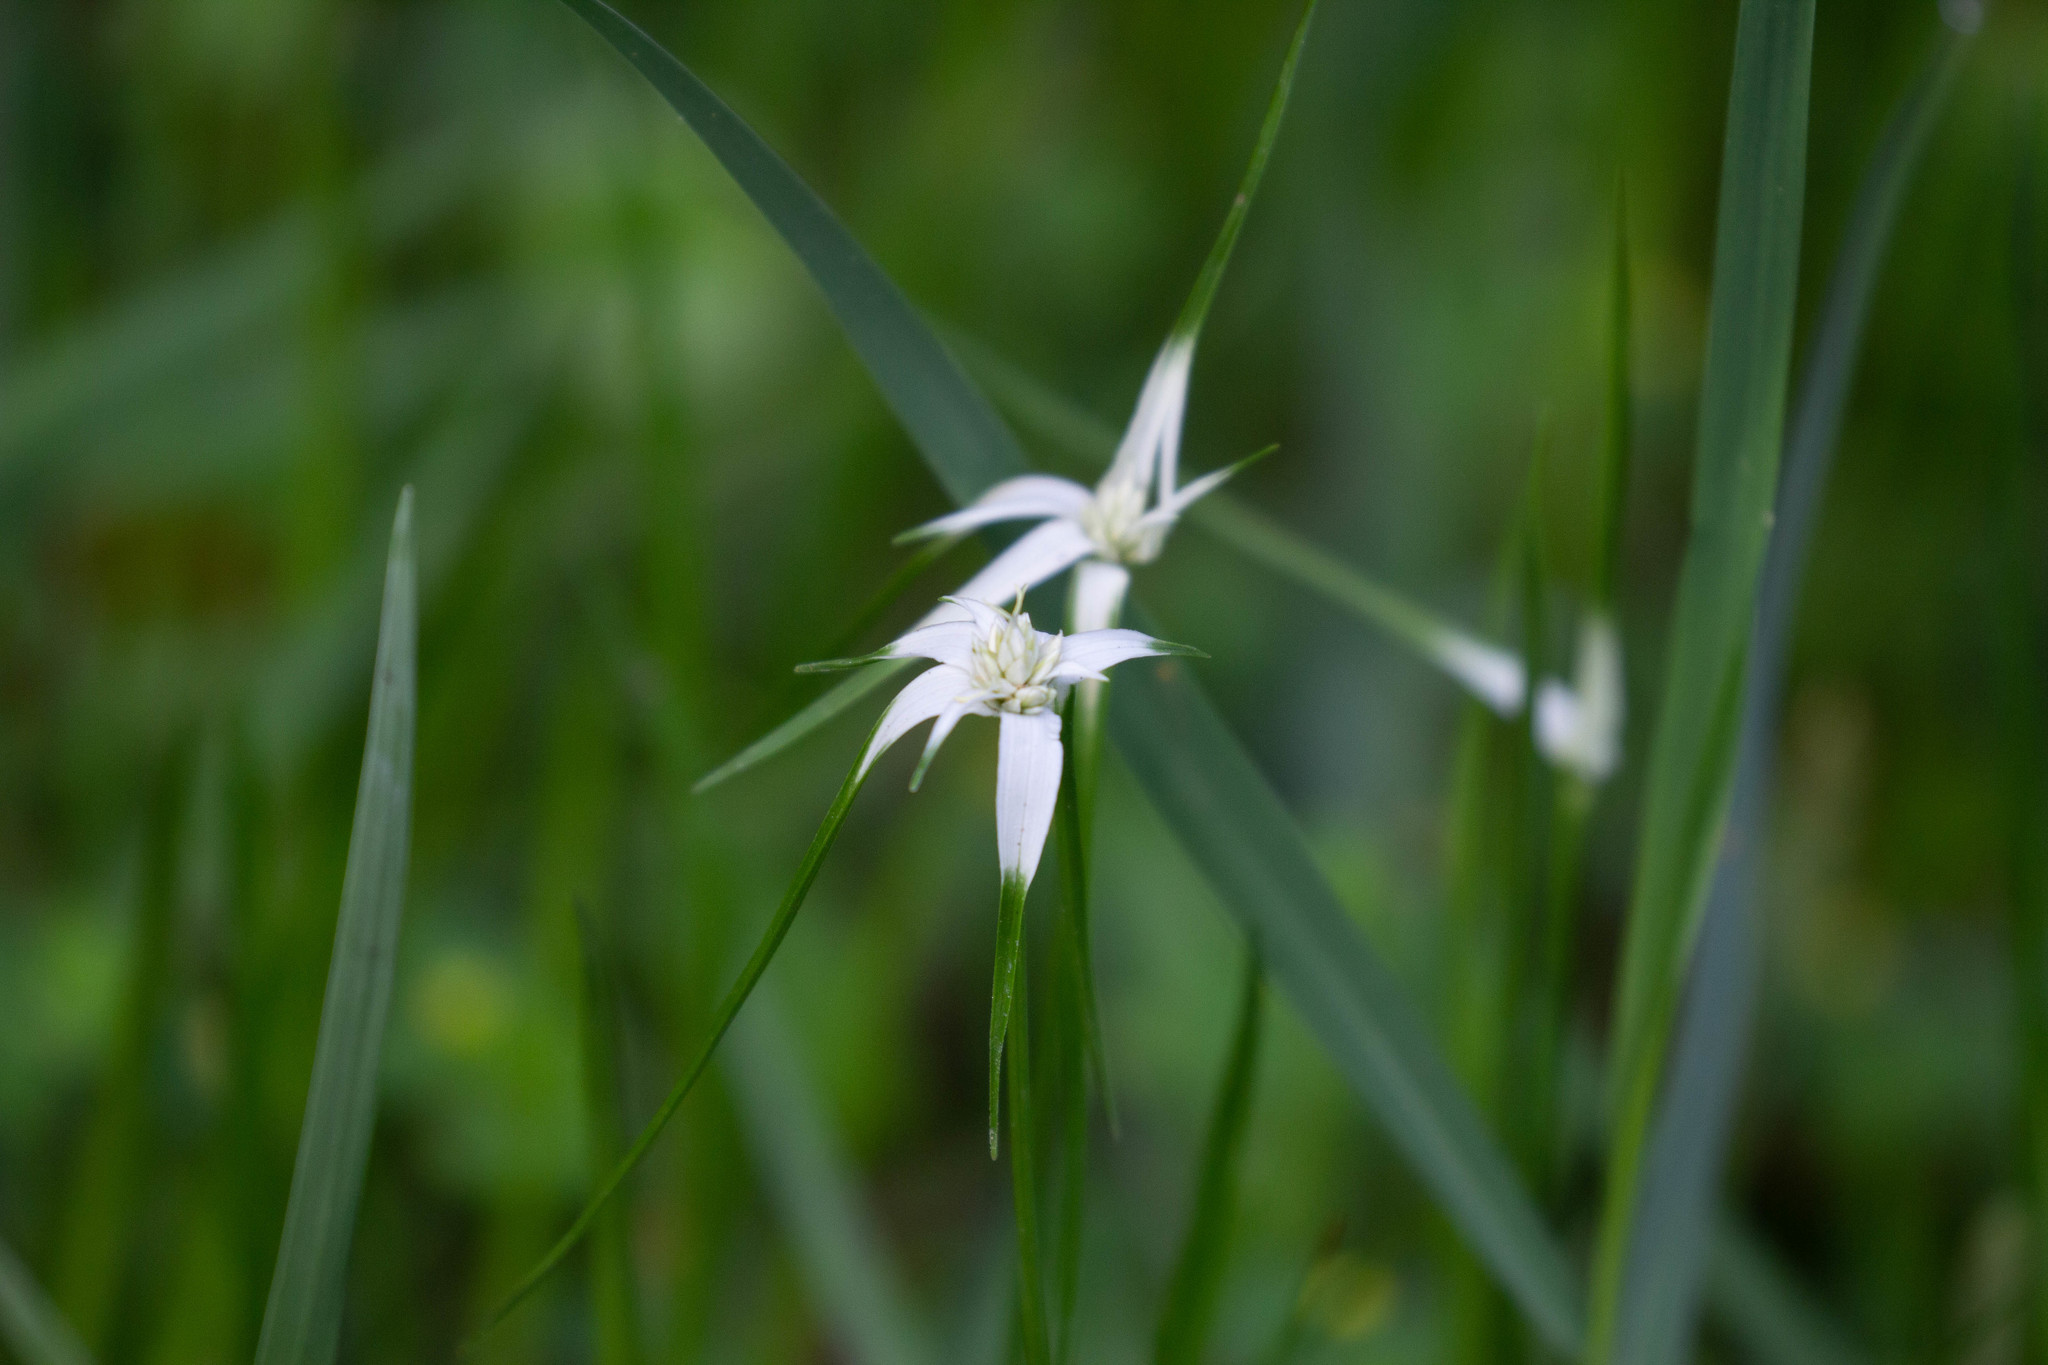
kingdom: Plantae
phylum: Tracheophyta
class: Liliopsida
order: Poales
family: Cyperaceae
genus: Rhynchospora
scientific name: Rhynchospora colorata
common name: Star sedge
